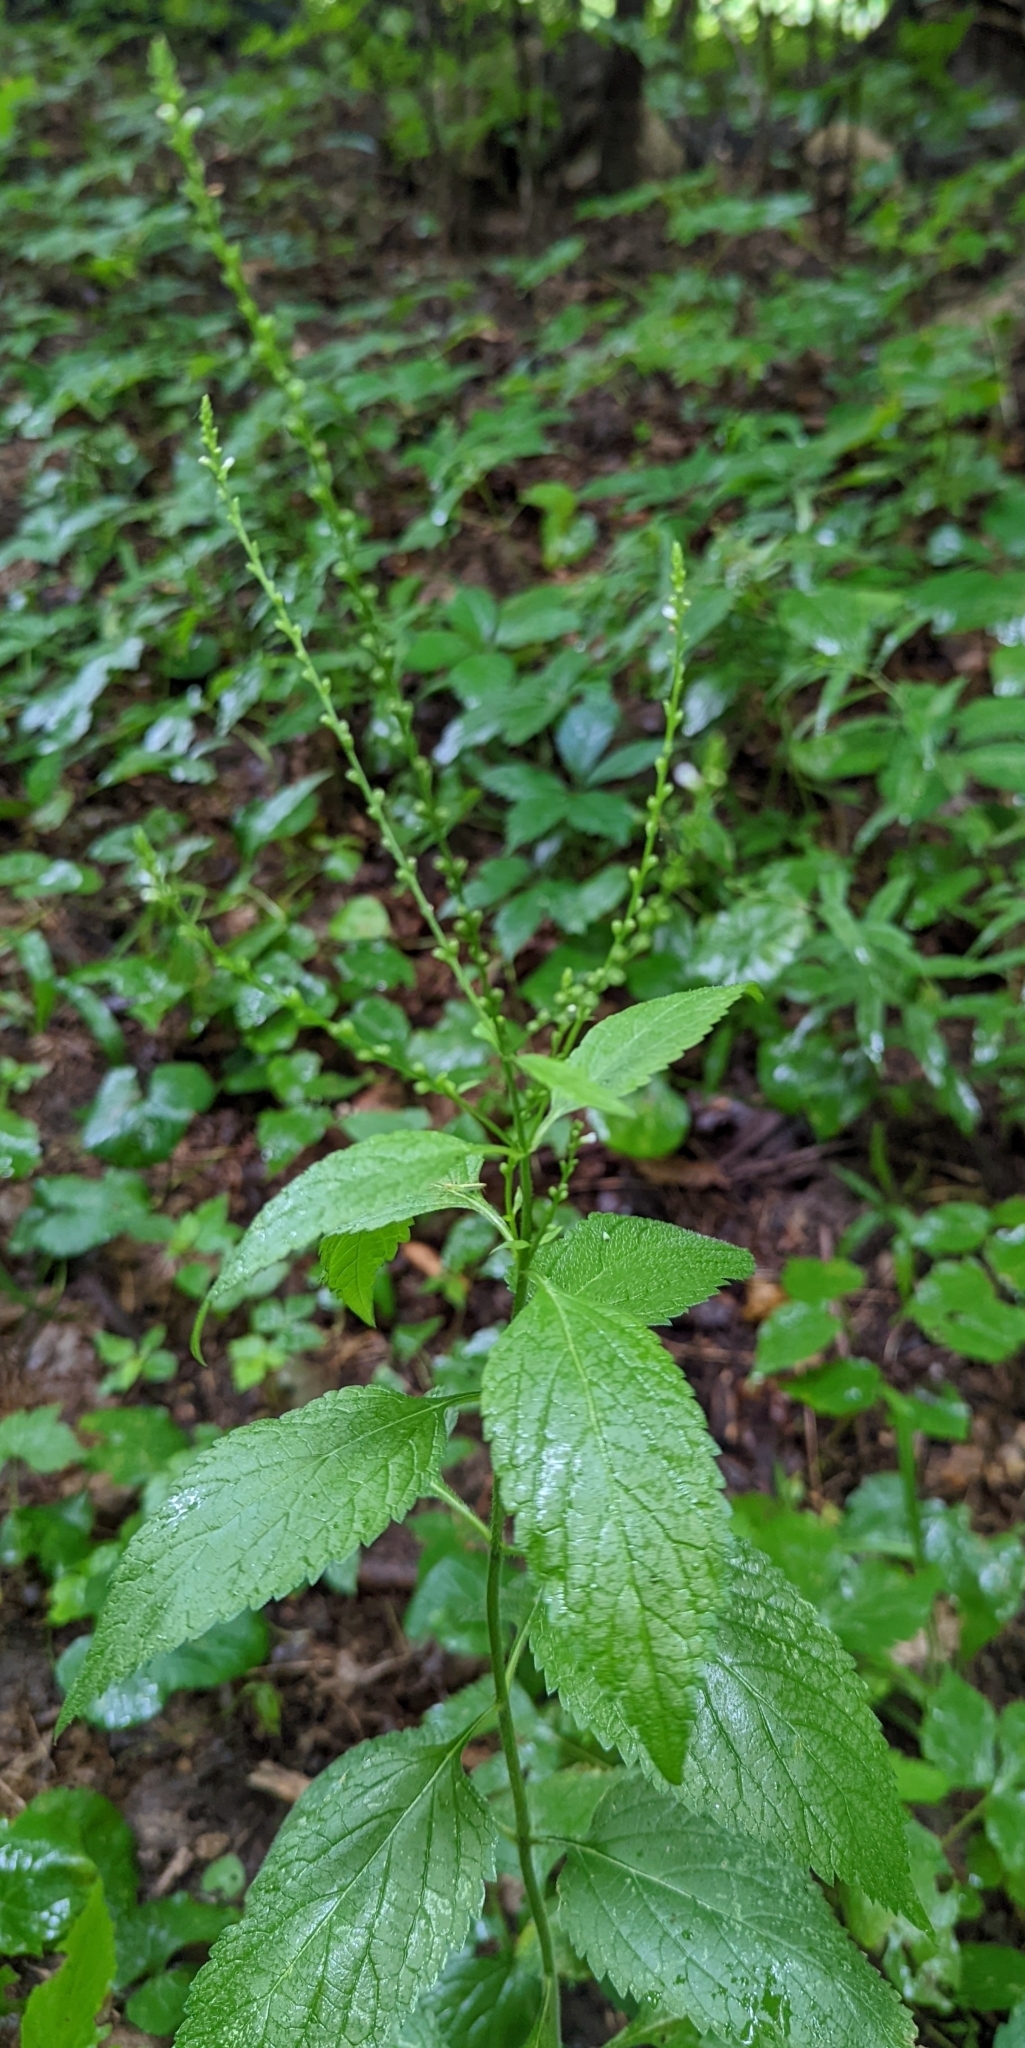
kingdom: Plantae
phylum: Tracheophyta
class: Magnoliopsida
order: Lamiales
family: Verbenaceae
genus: Verbena
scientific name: Verbena urticifolia
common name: Nettle-leaved vervain
